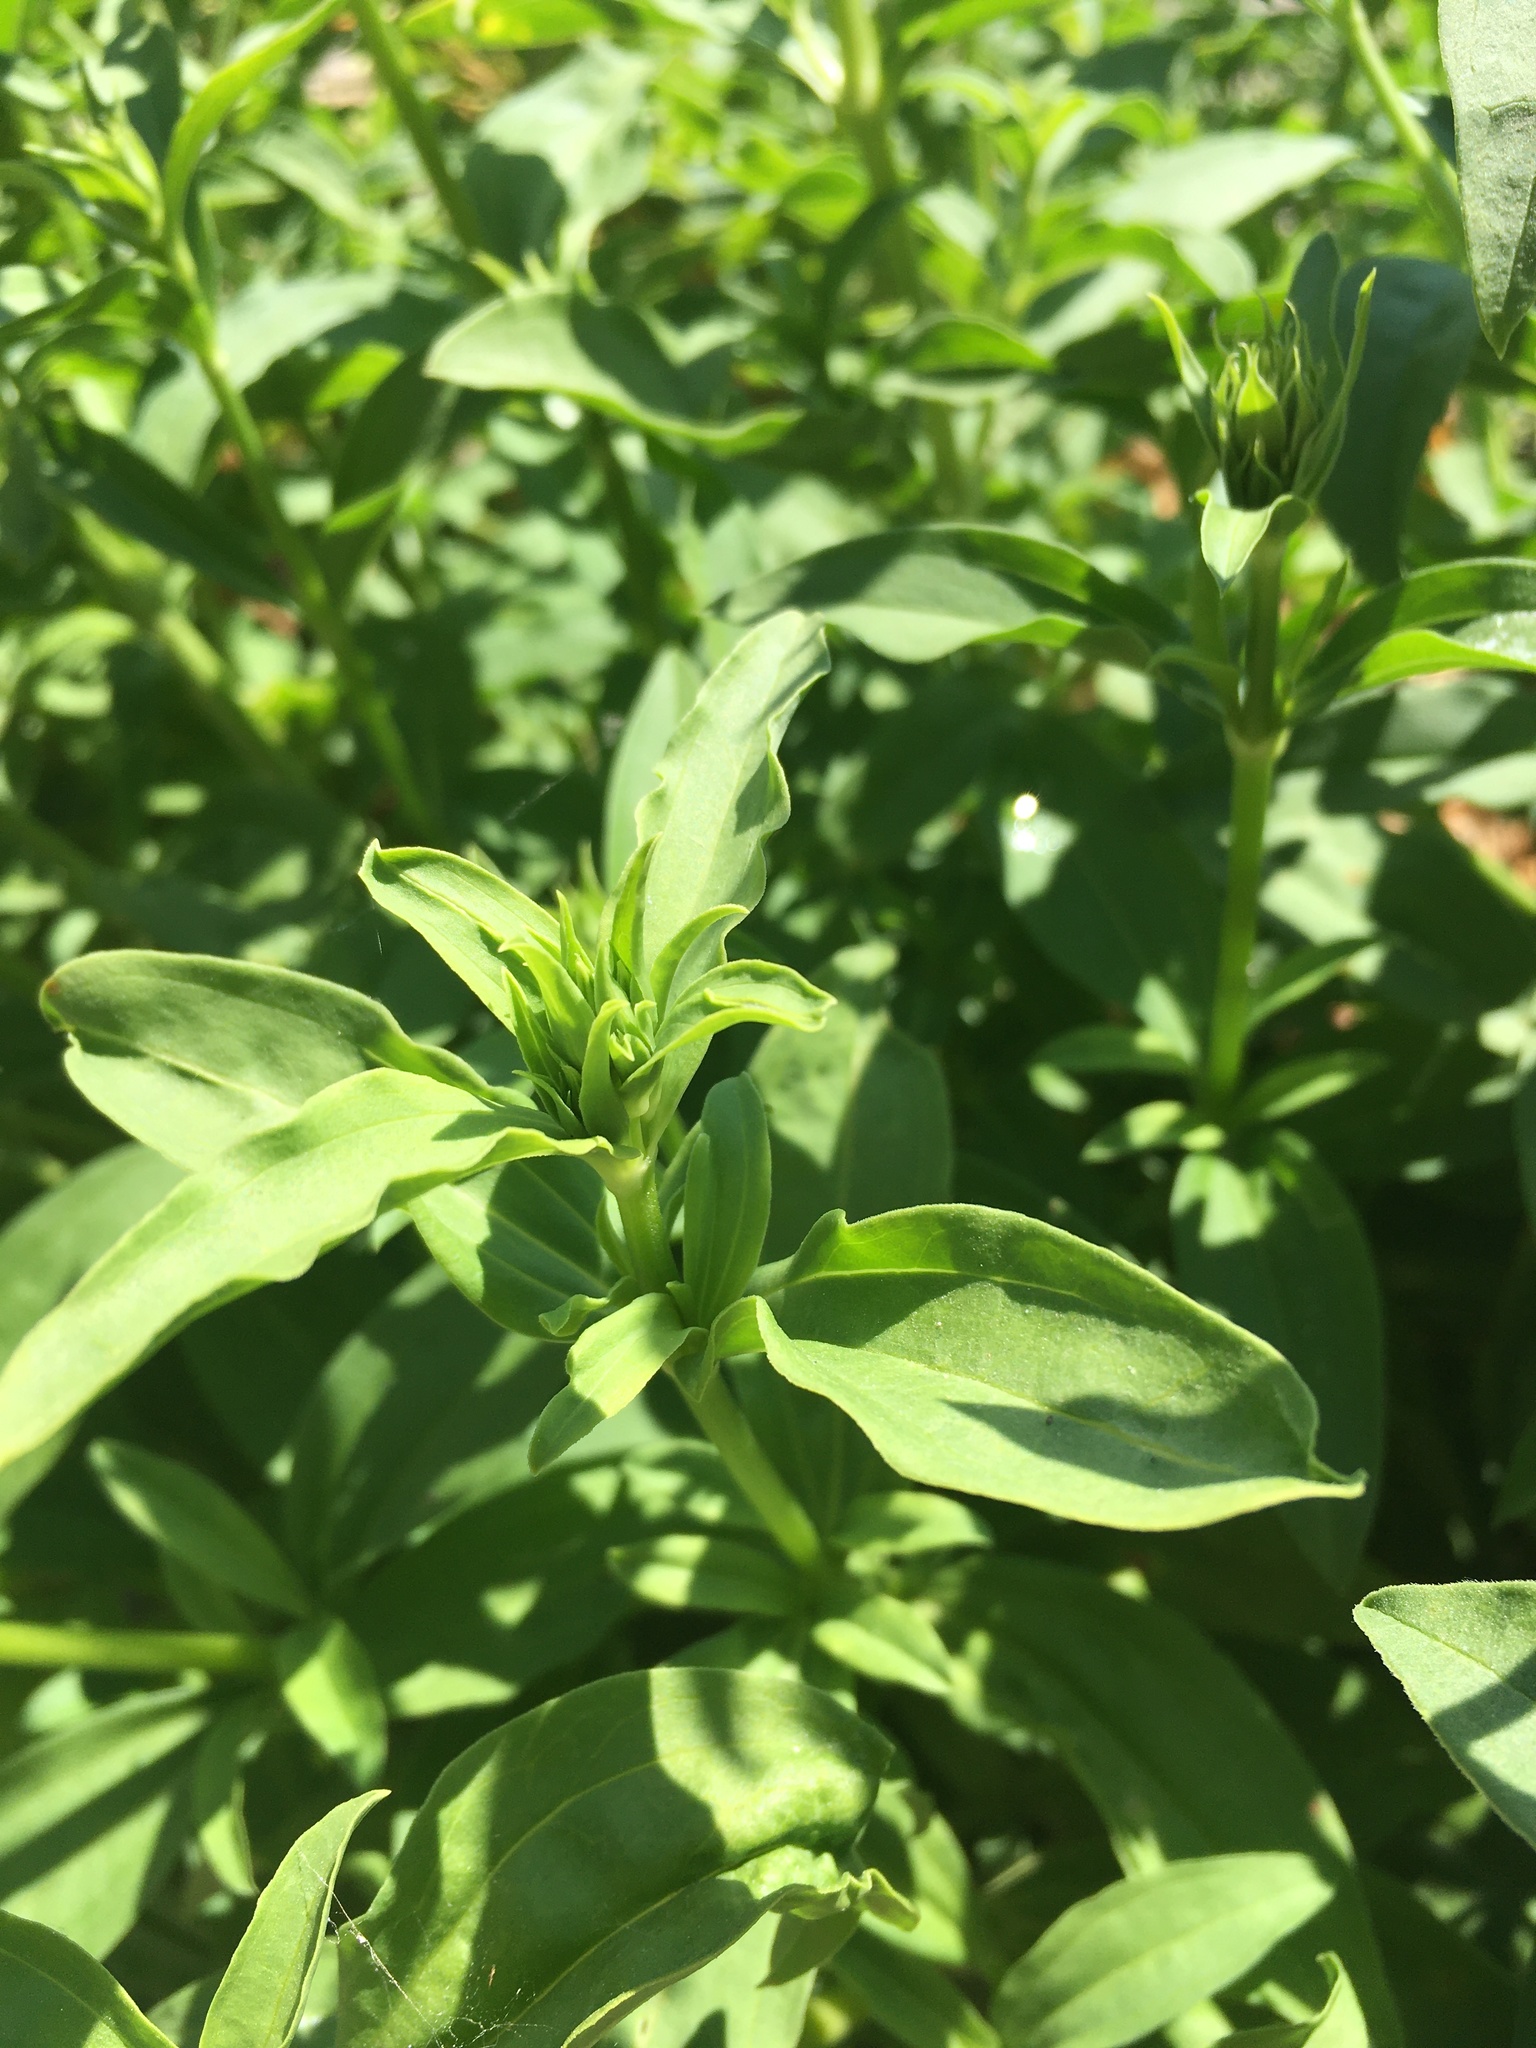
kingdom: Plantae
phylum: Tracheophyta
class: Magnoliopsida
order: Caryophyllales
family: Caryophyllaceae
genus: Saponaria
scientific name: Saponaria officinalis
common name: Soapwort
